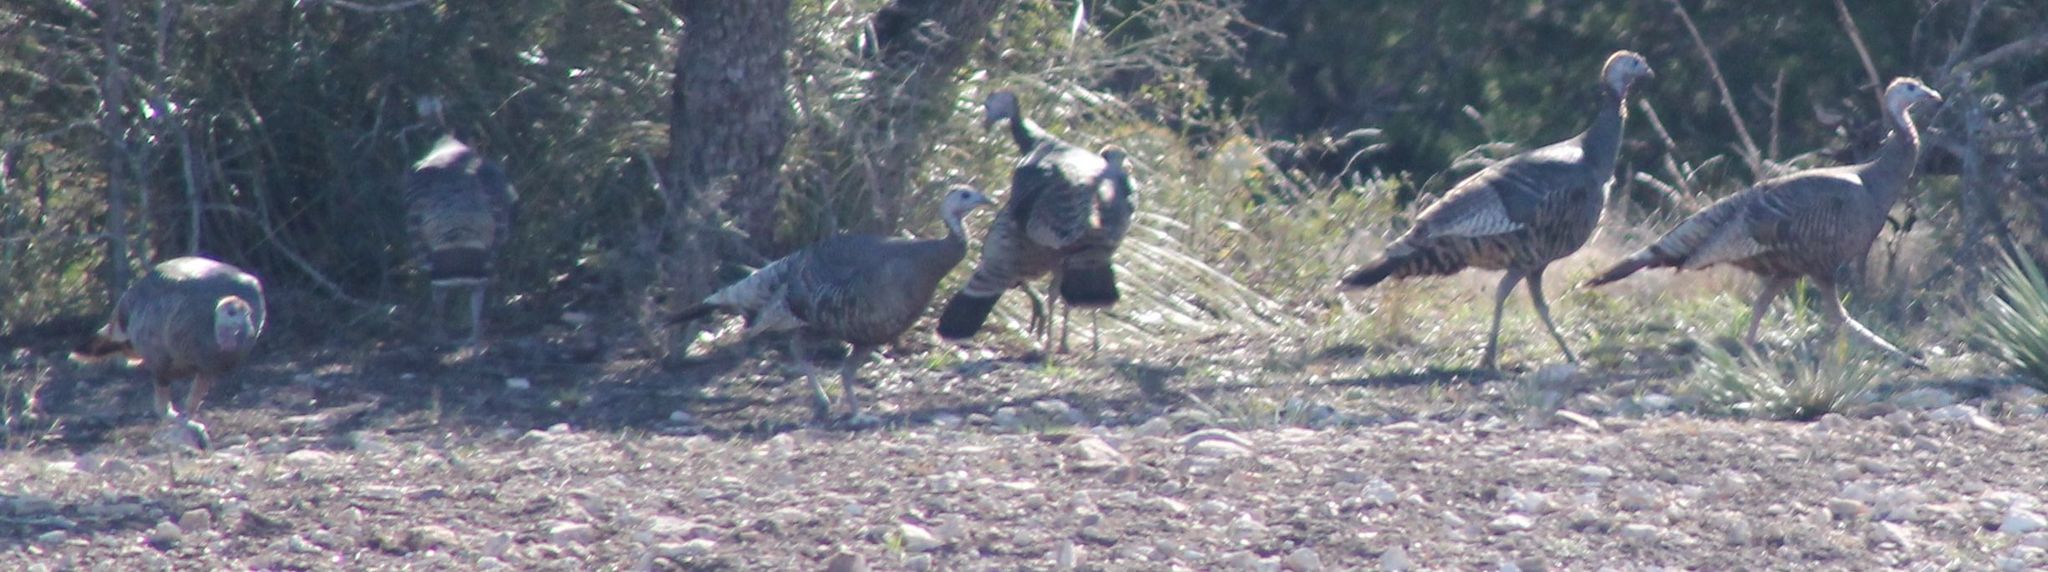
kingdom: Animalia
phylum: Chordata
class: Aves
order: Galliformes
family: Phasianidae
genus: Meleagris
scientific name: Meleagris gallopavo
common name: Wild turkey
